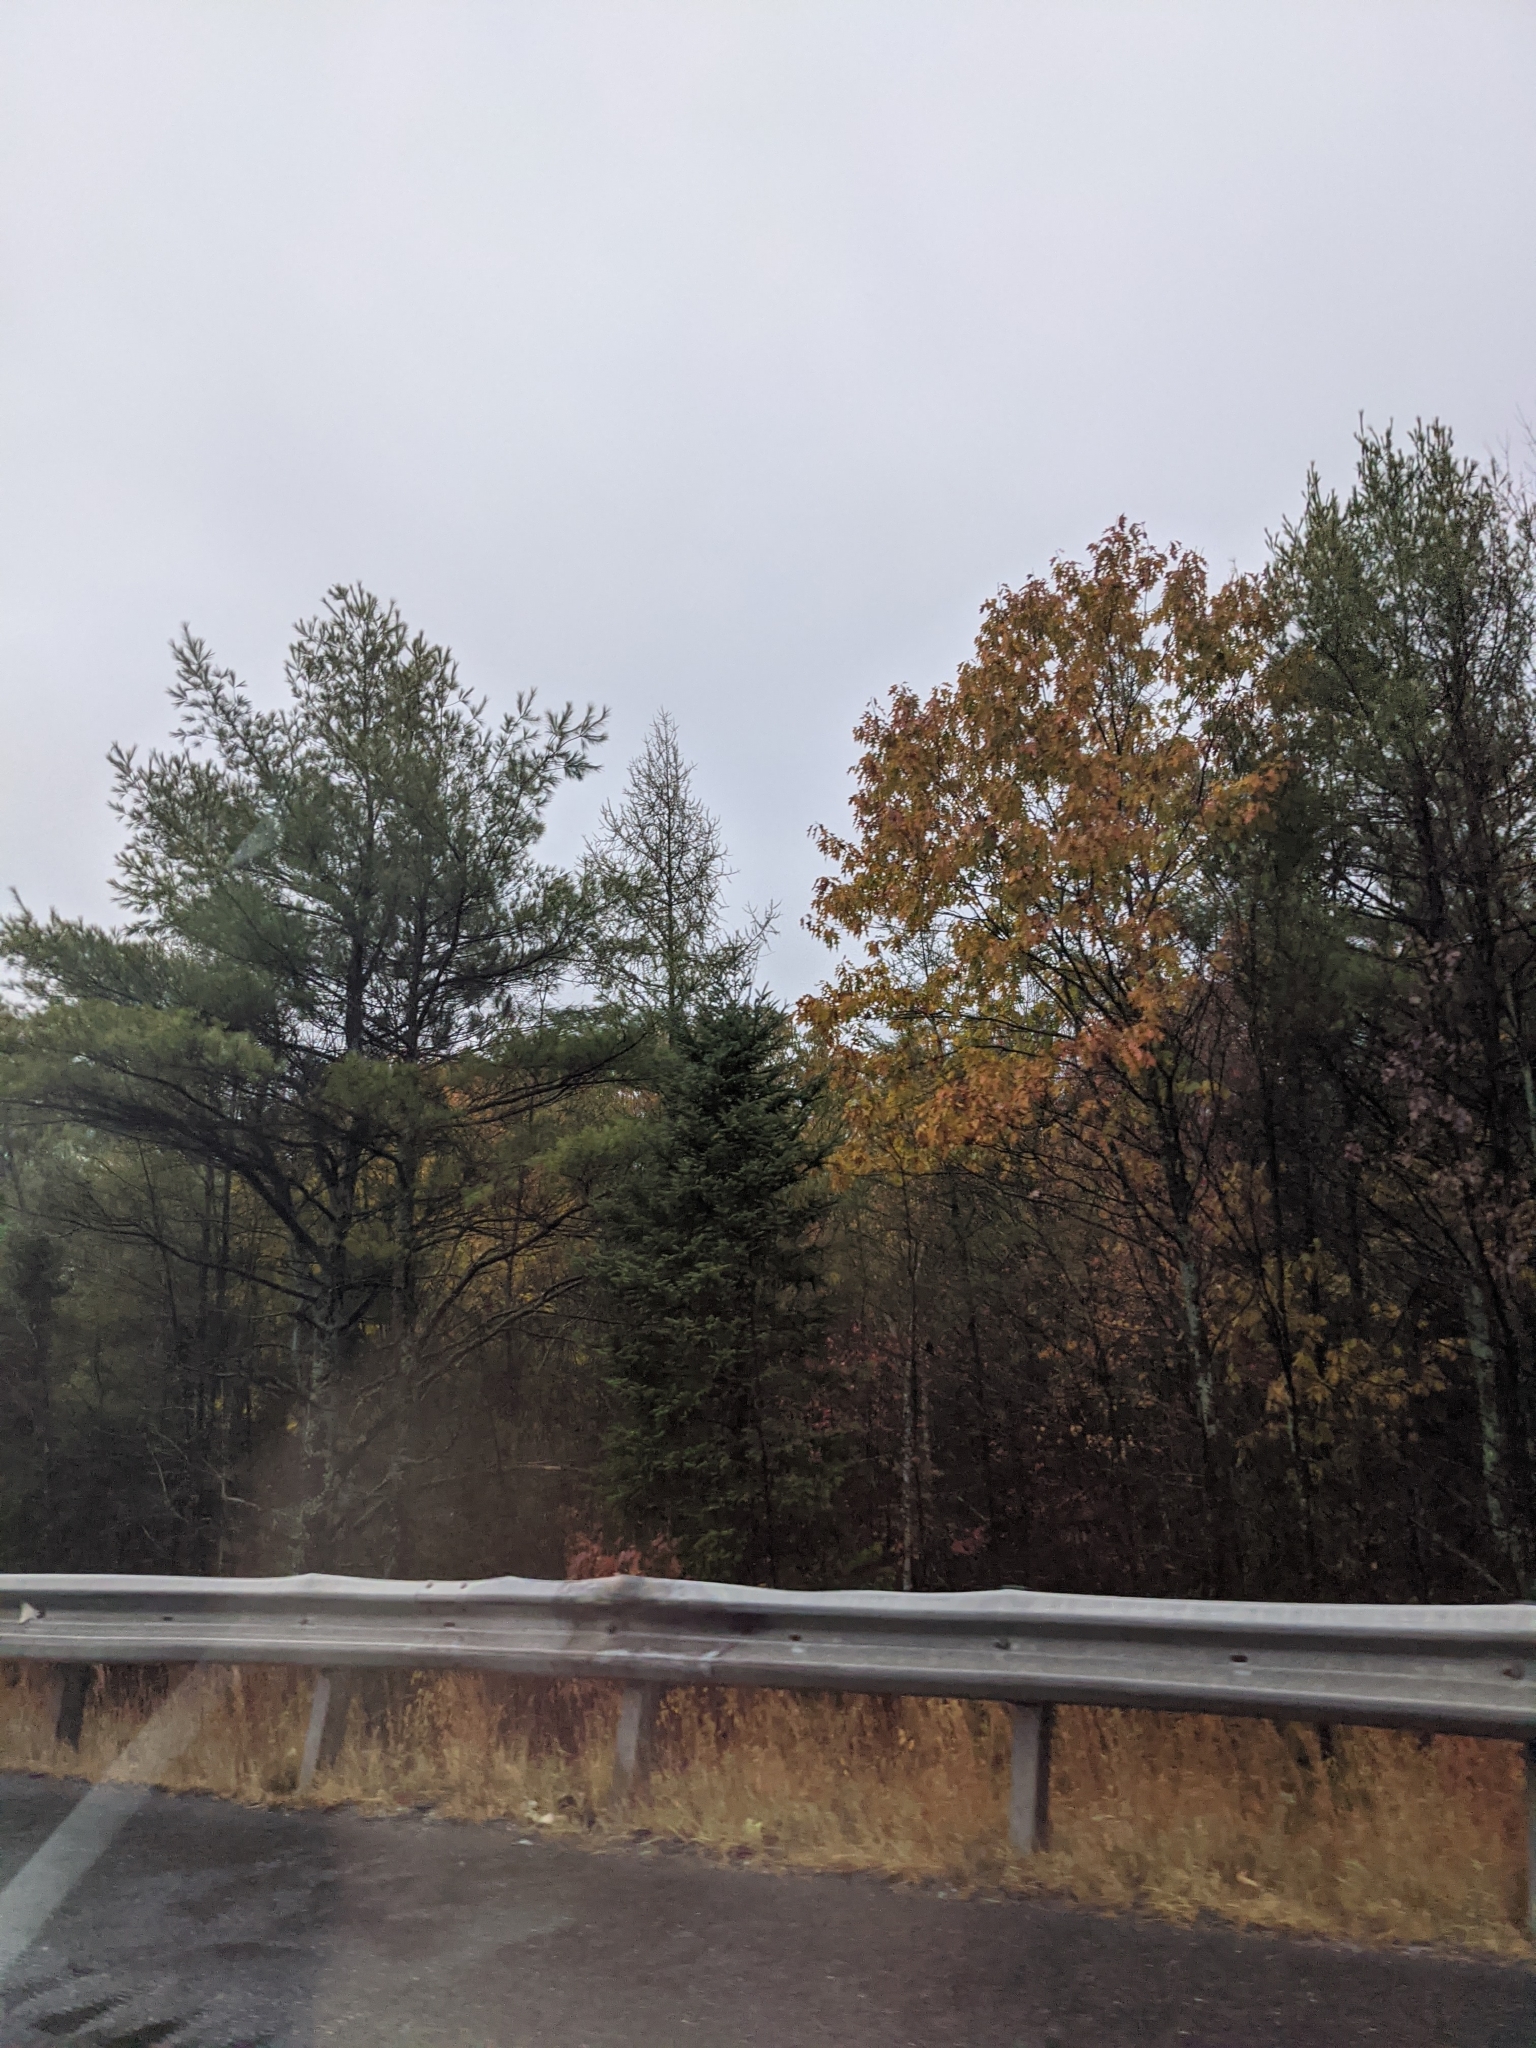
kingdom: Plantae
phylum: Tracheophyta
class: Pinopsida
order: Pinales
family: Pinaceae
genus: Pinus
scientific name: Pinus strobus
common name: Weymouth pine
